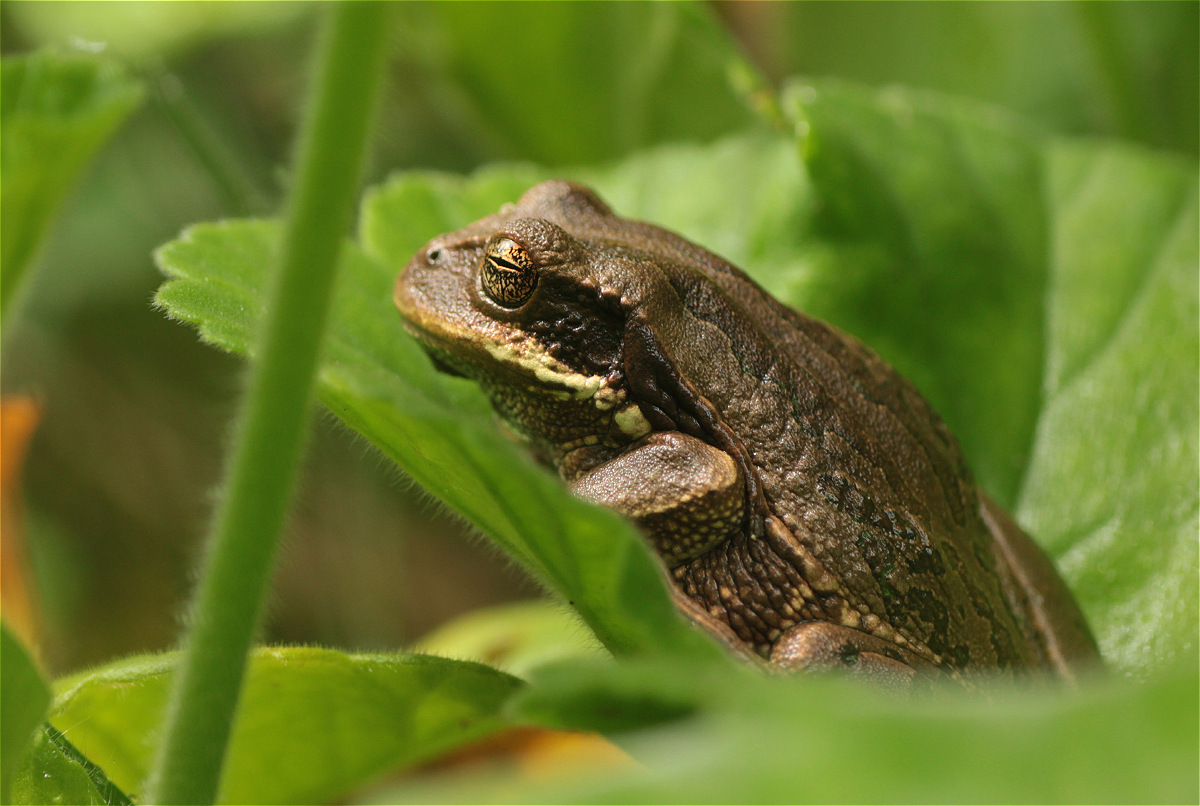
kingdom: Animalia
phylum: Chordata
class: Amphibia
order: Anura
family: Hemiphractidae
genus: Gastrotheca
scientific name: Gastrotheca cuencana
